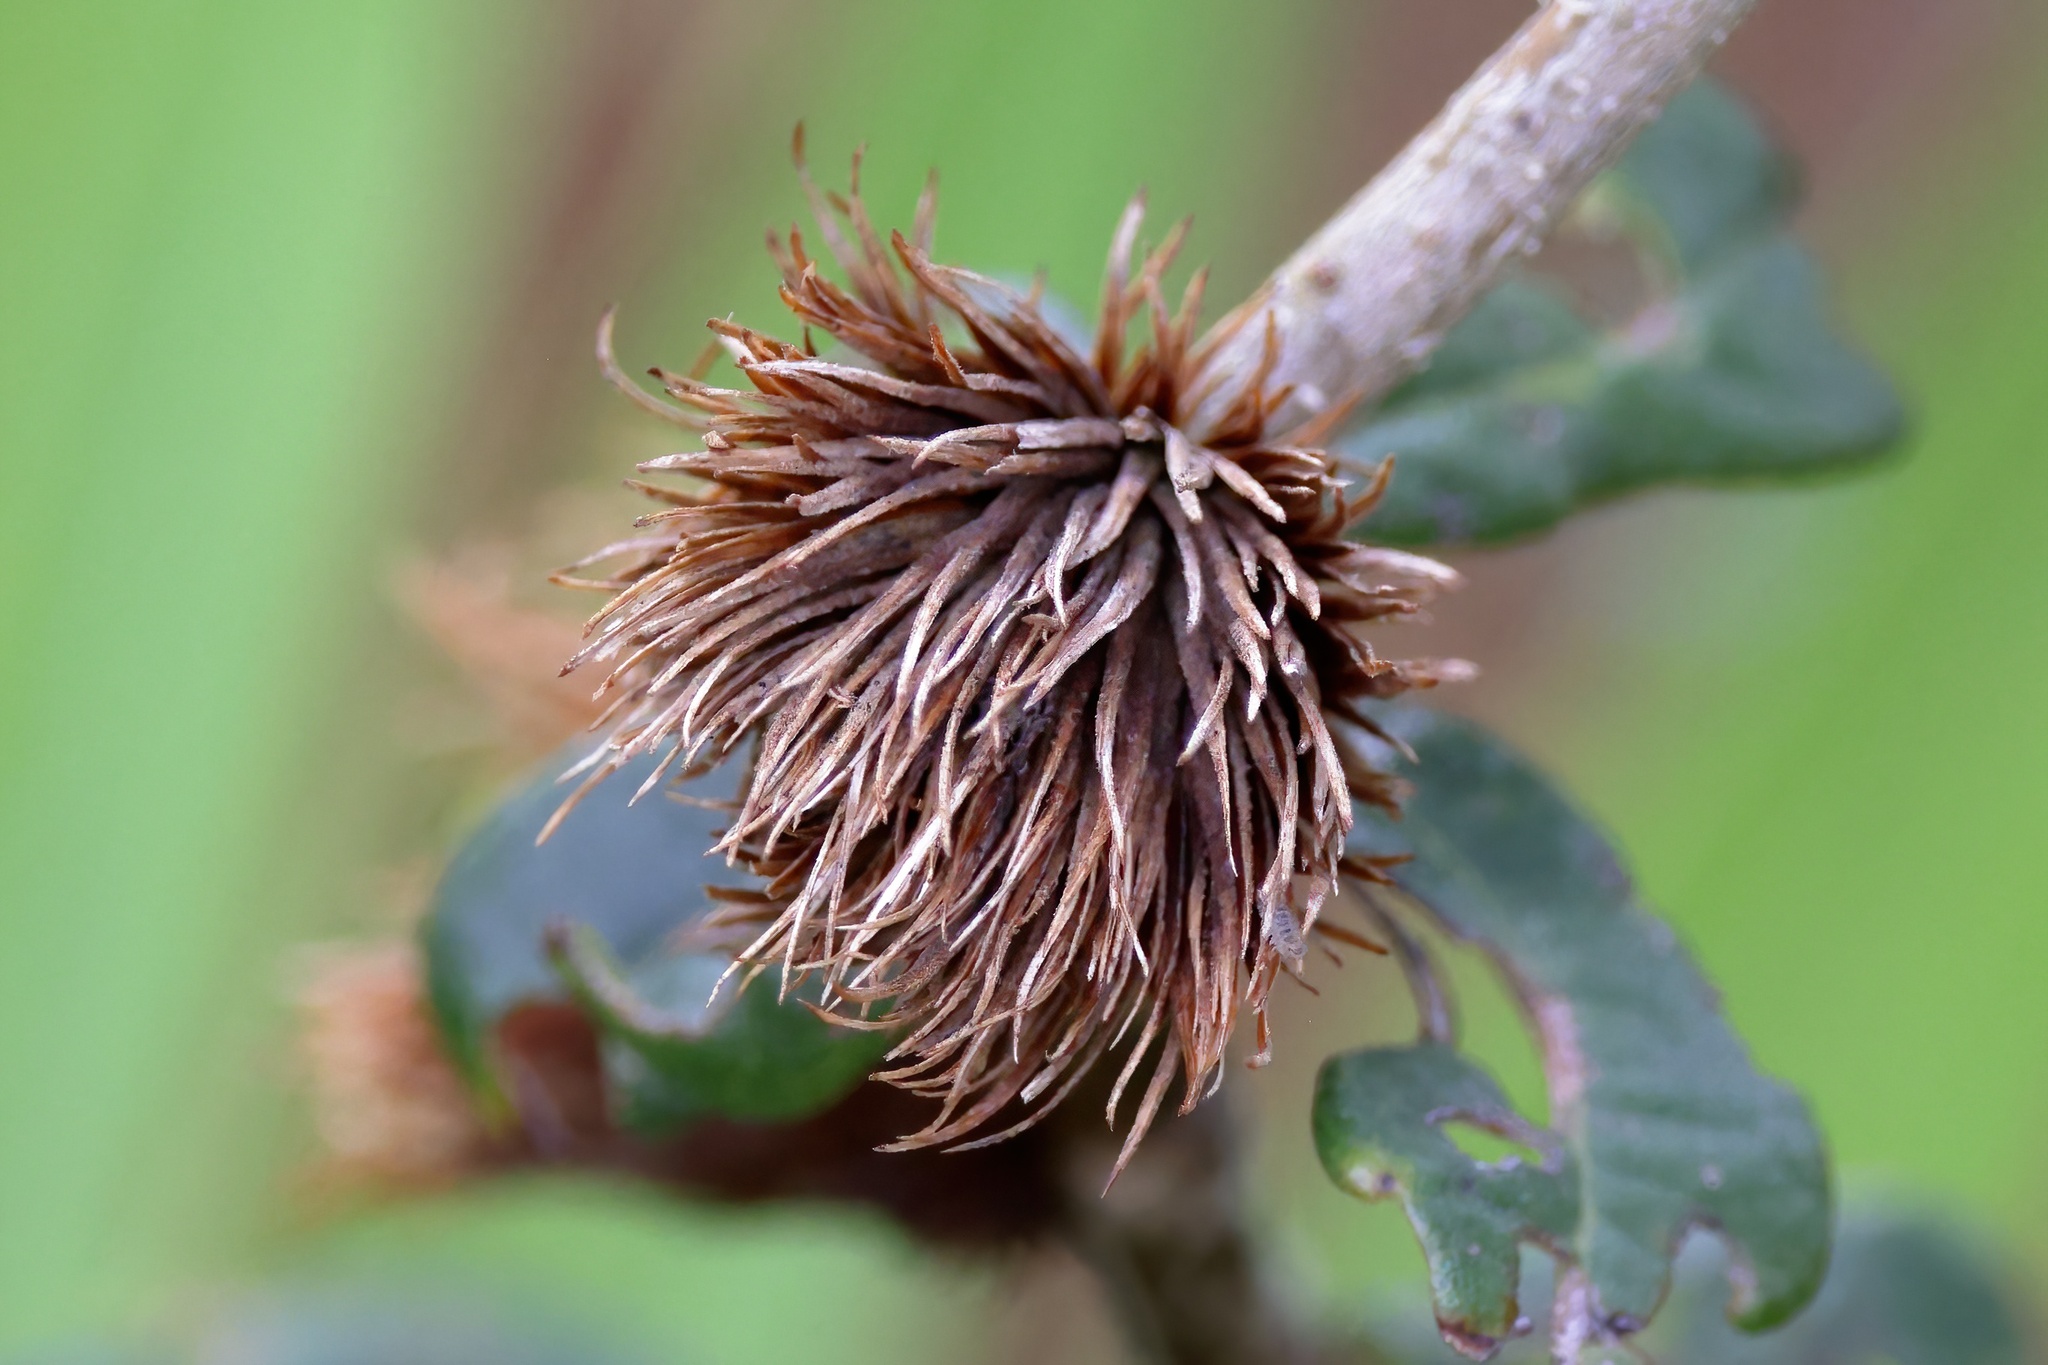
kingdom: Animalia
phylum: Arthropoda
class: Insecta
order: Hymenoptera
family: Cynipidae
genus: Andricus
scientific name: Andricus quercusfoliatus
